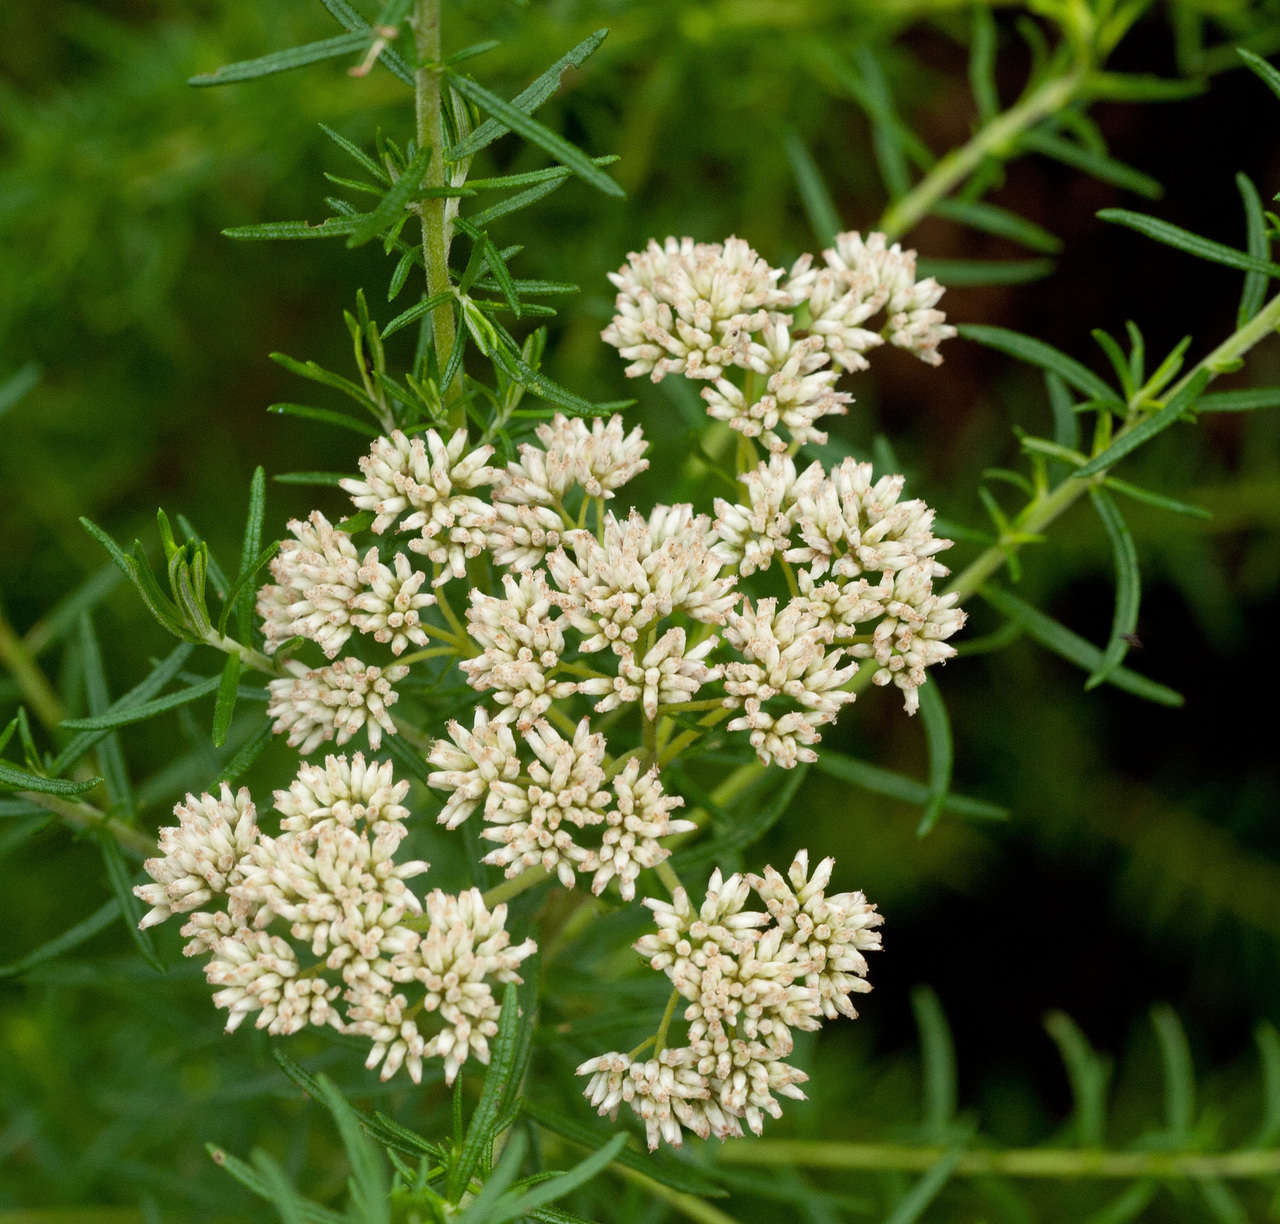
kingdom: Plantae
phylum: Tracheophyta
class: Magnoliopsida
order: Asterales
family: Asteraceae
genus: Cassinia
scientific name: Cassinia aculeata
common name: Australian tauhinu
